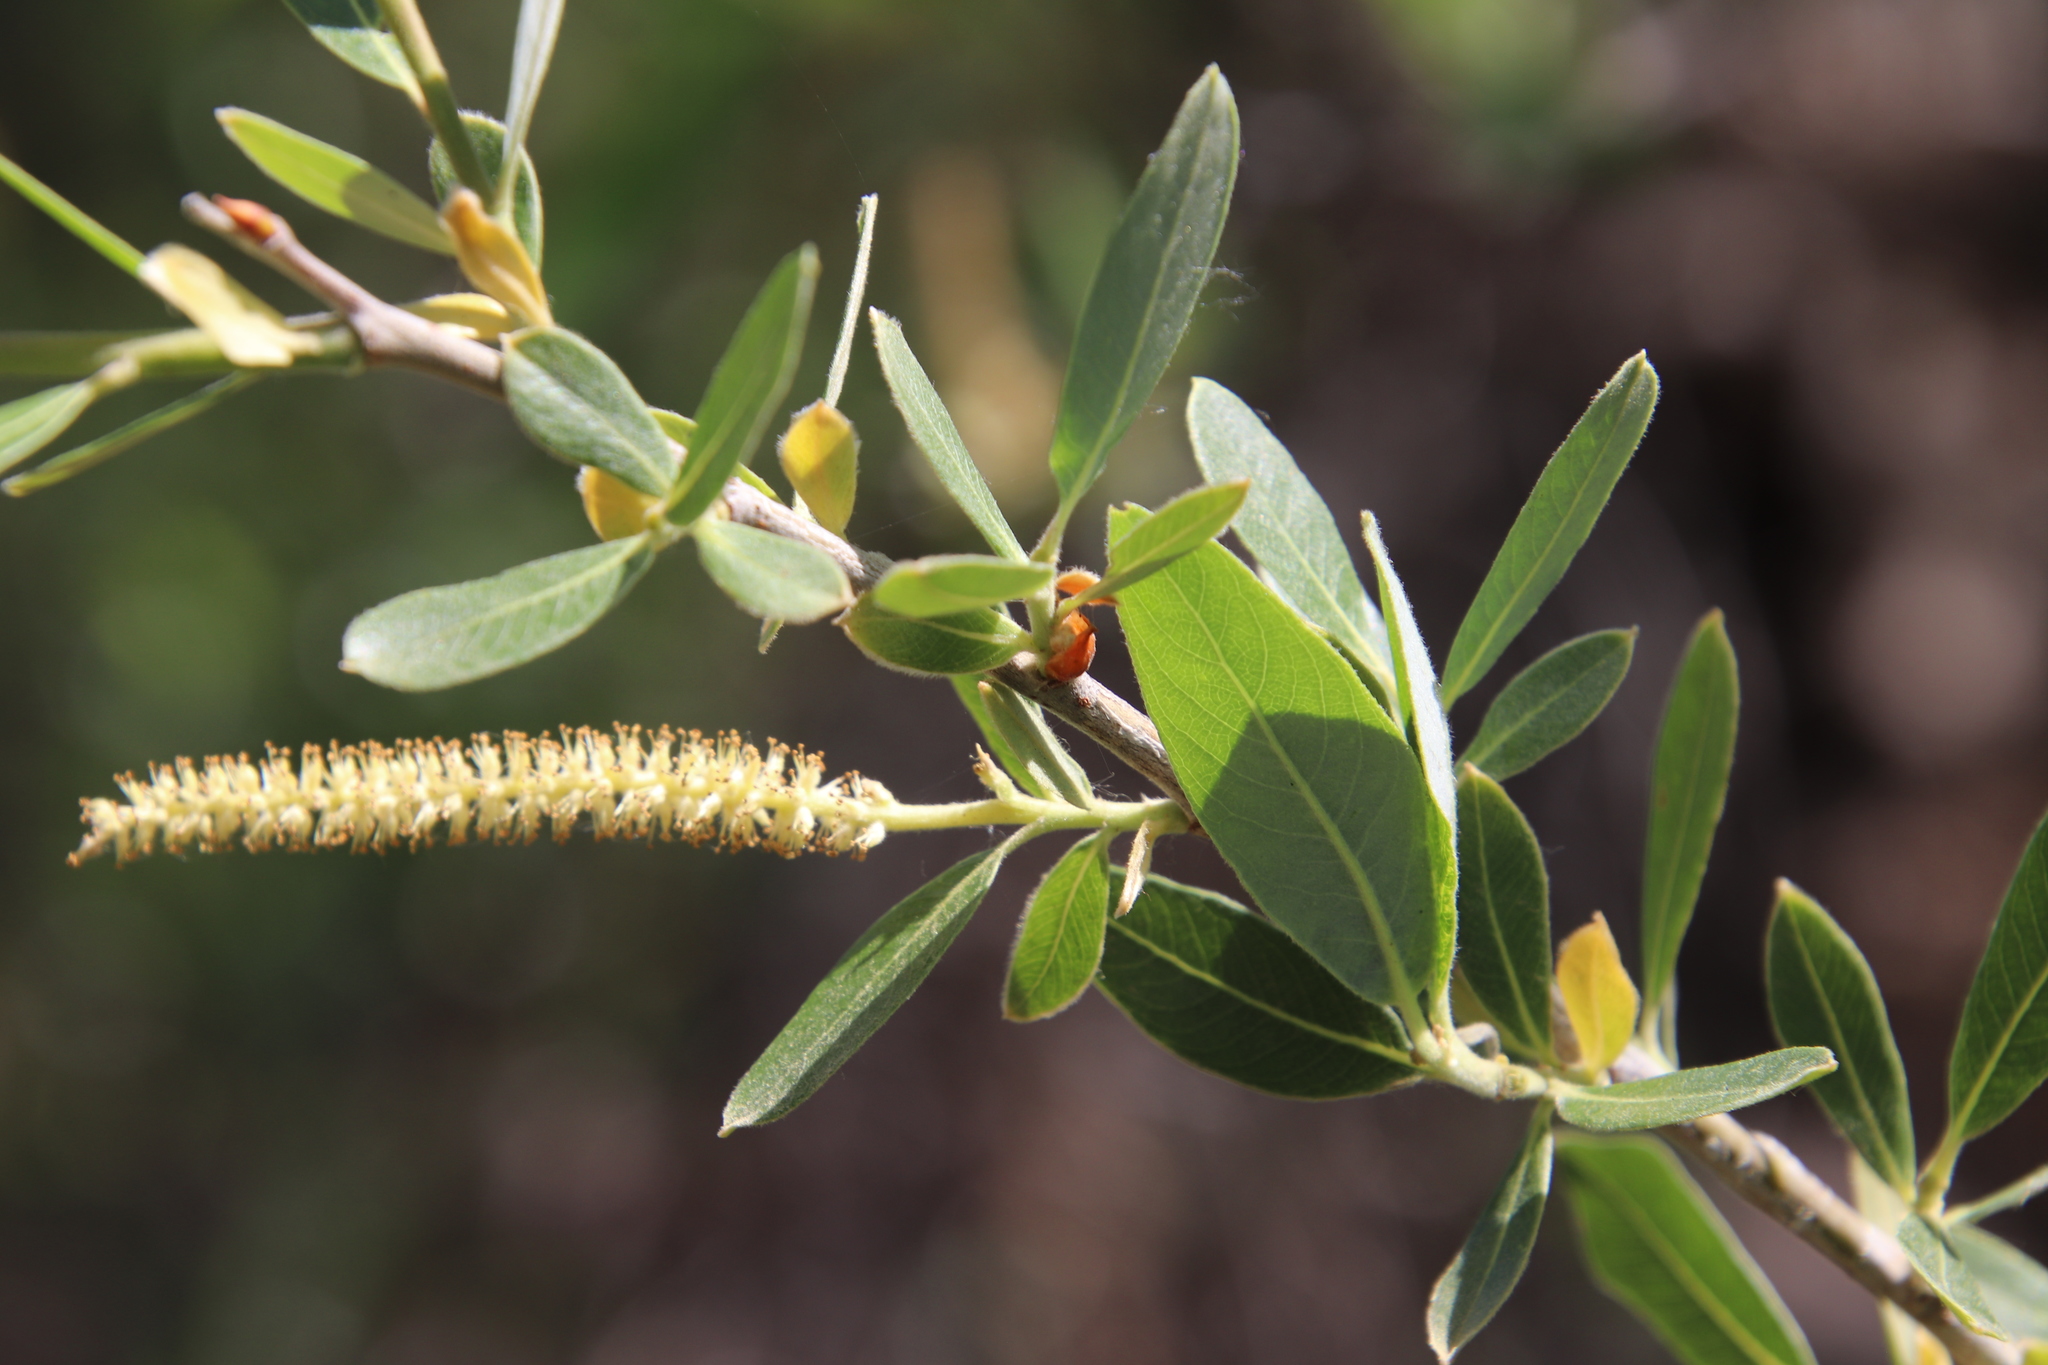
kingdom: Plantae
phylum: Tracheophyta
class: Magnoliopsida
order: Malpighiales
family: Salicaceae
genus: Salix
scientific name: Salix laevigata
